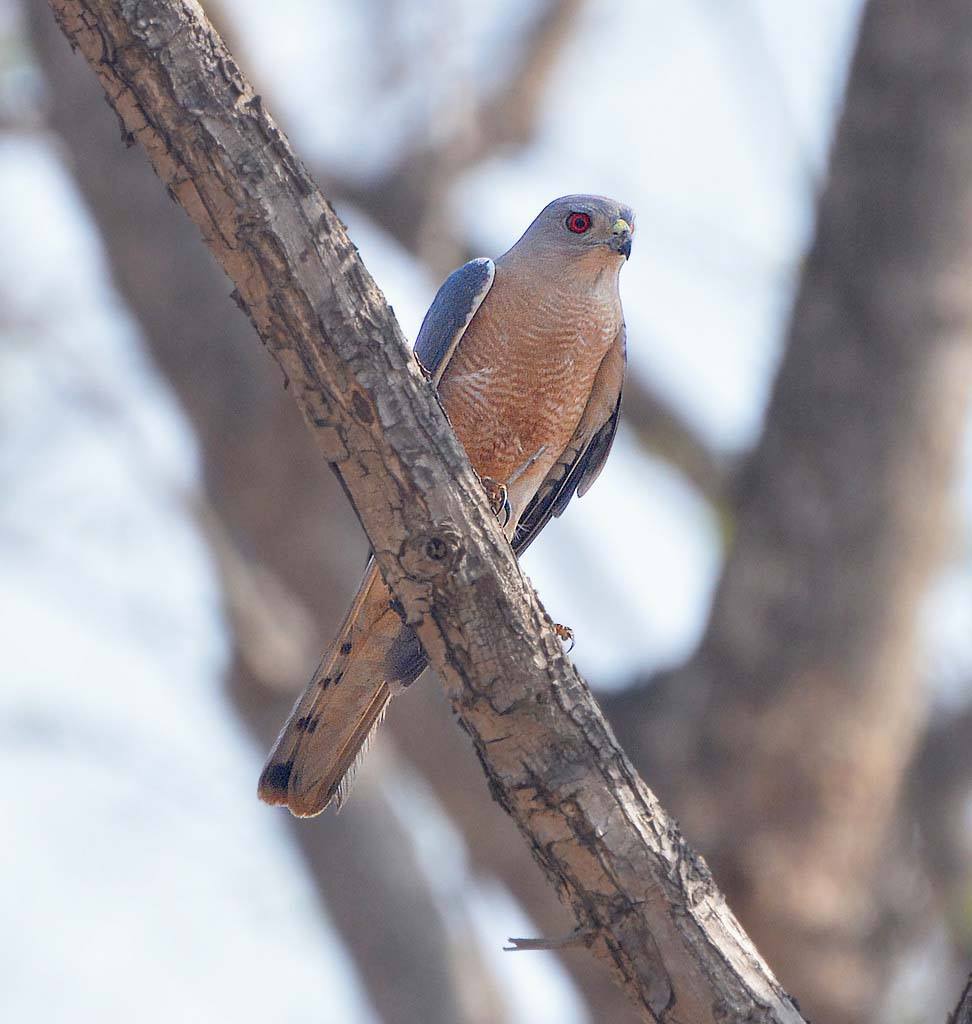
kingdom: Animalia
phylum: Chordata
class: Aves
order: Accipitriformes
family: Accipitridae
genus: Accipiter
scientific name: Accipiter badius
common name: Shikra
